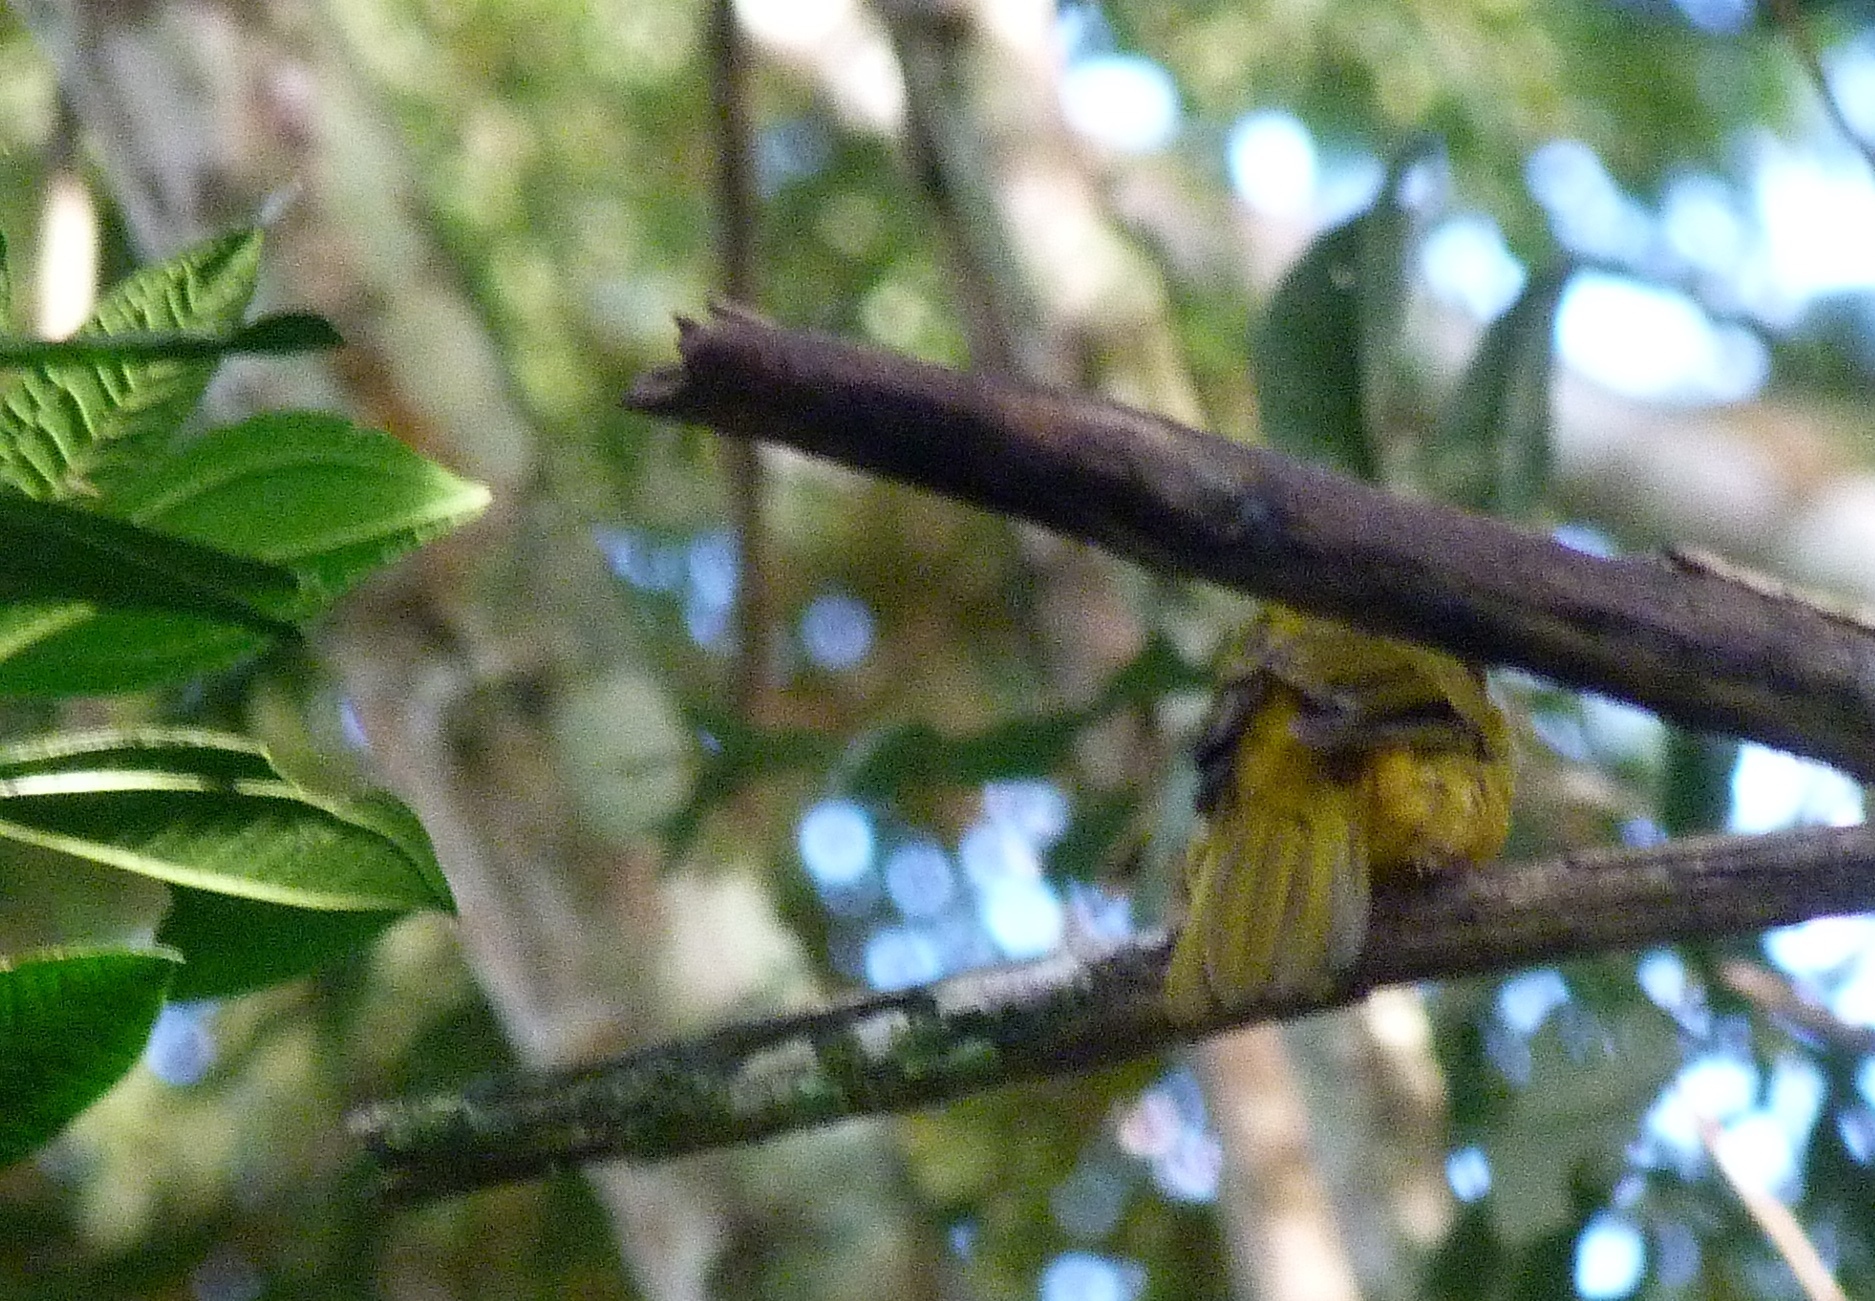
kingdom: Animalia
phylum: Chordata
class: Aves
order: Passeriformes
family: Thraupidae
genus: Eucometis
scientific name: Eucometis penicillata
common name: Grey-headed tanager
